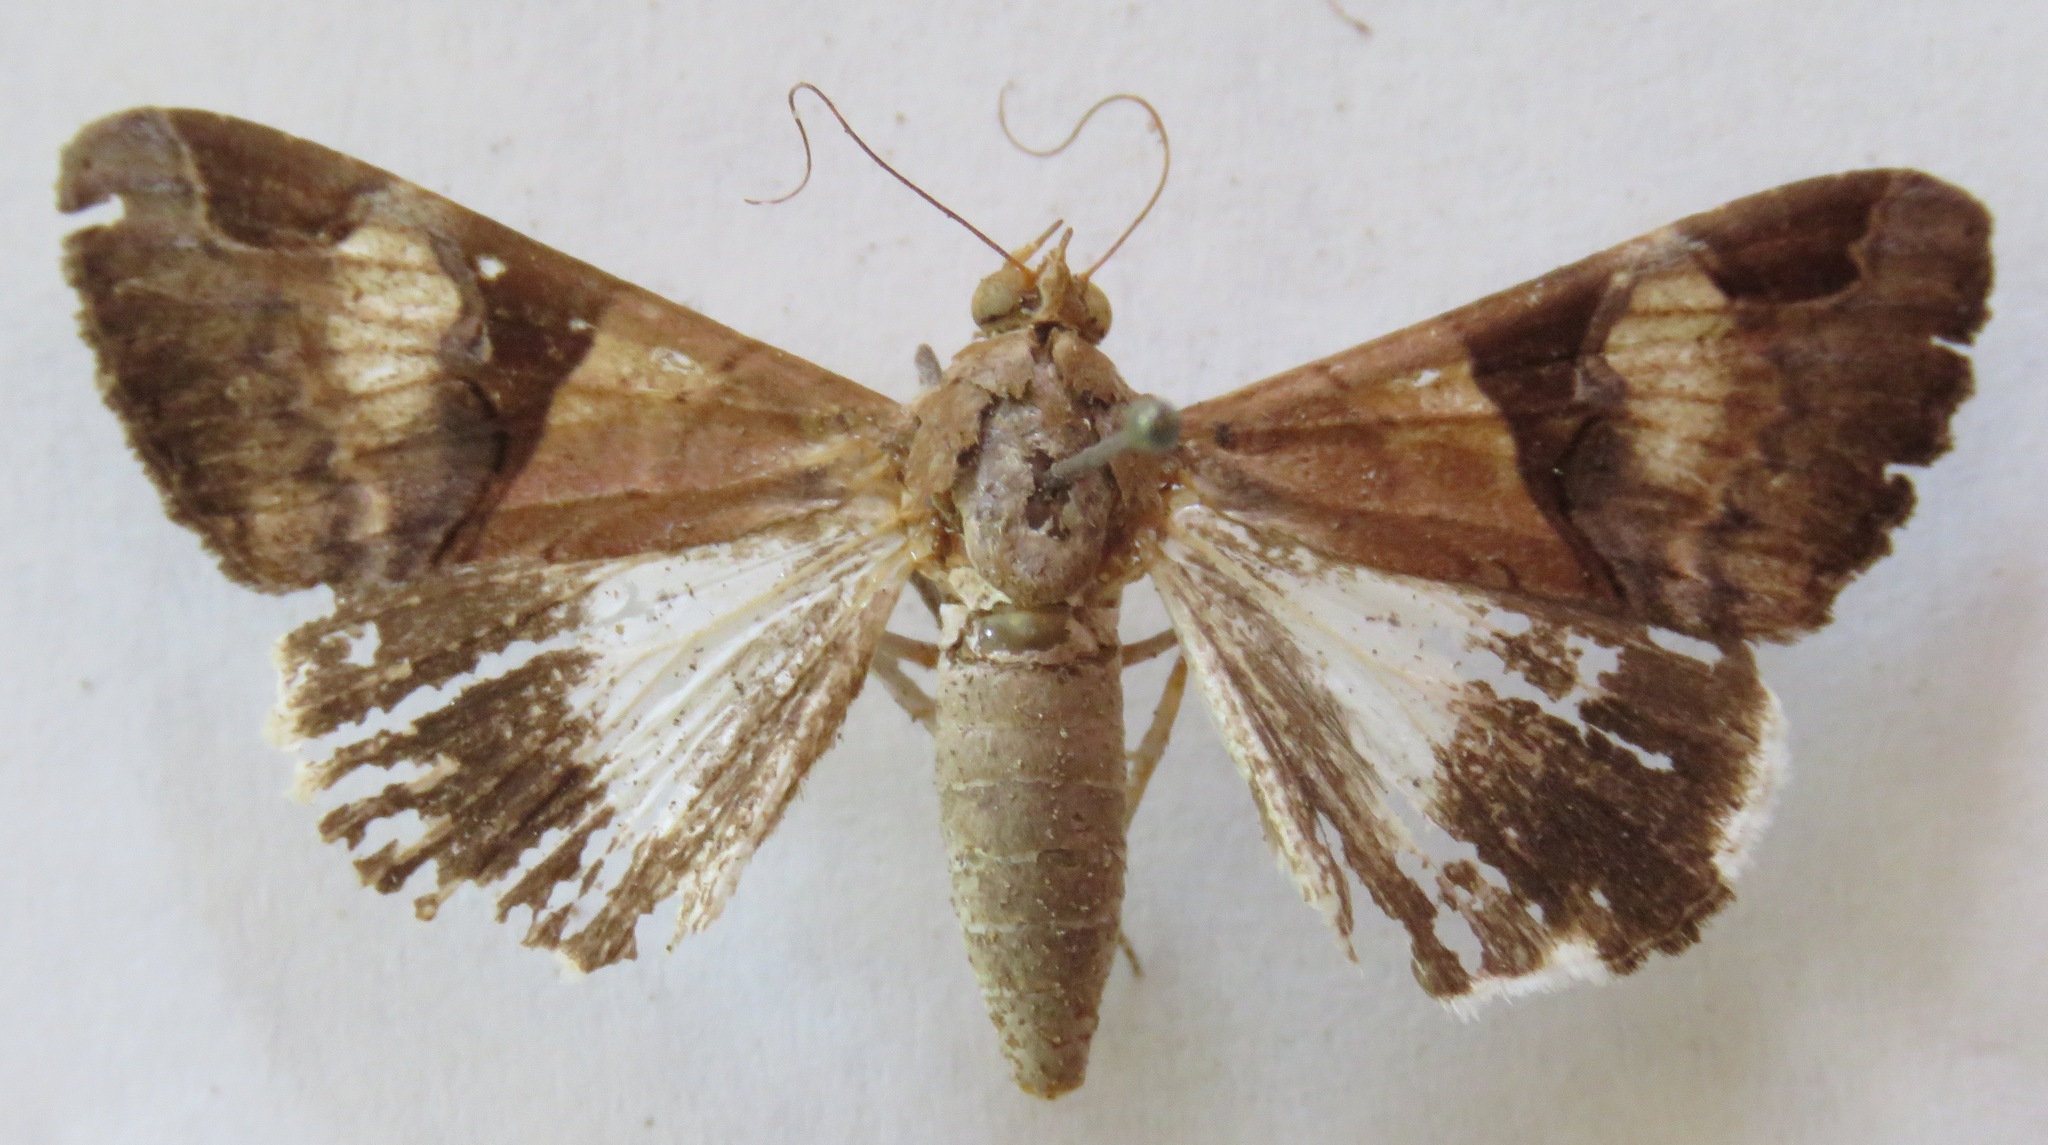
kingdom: Animalia
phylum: Arthropoda
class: Insecta
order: Lepidoptera
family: Erebidae
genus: Melipotis
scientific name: Melipotis fasciolaris
